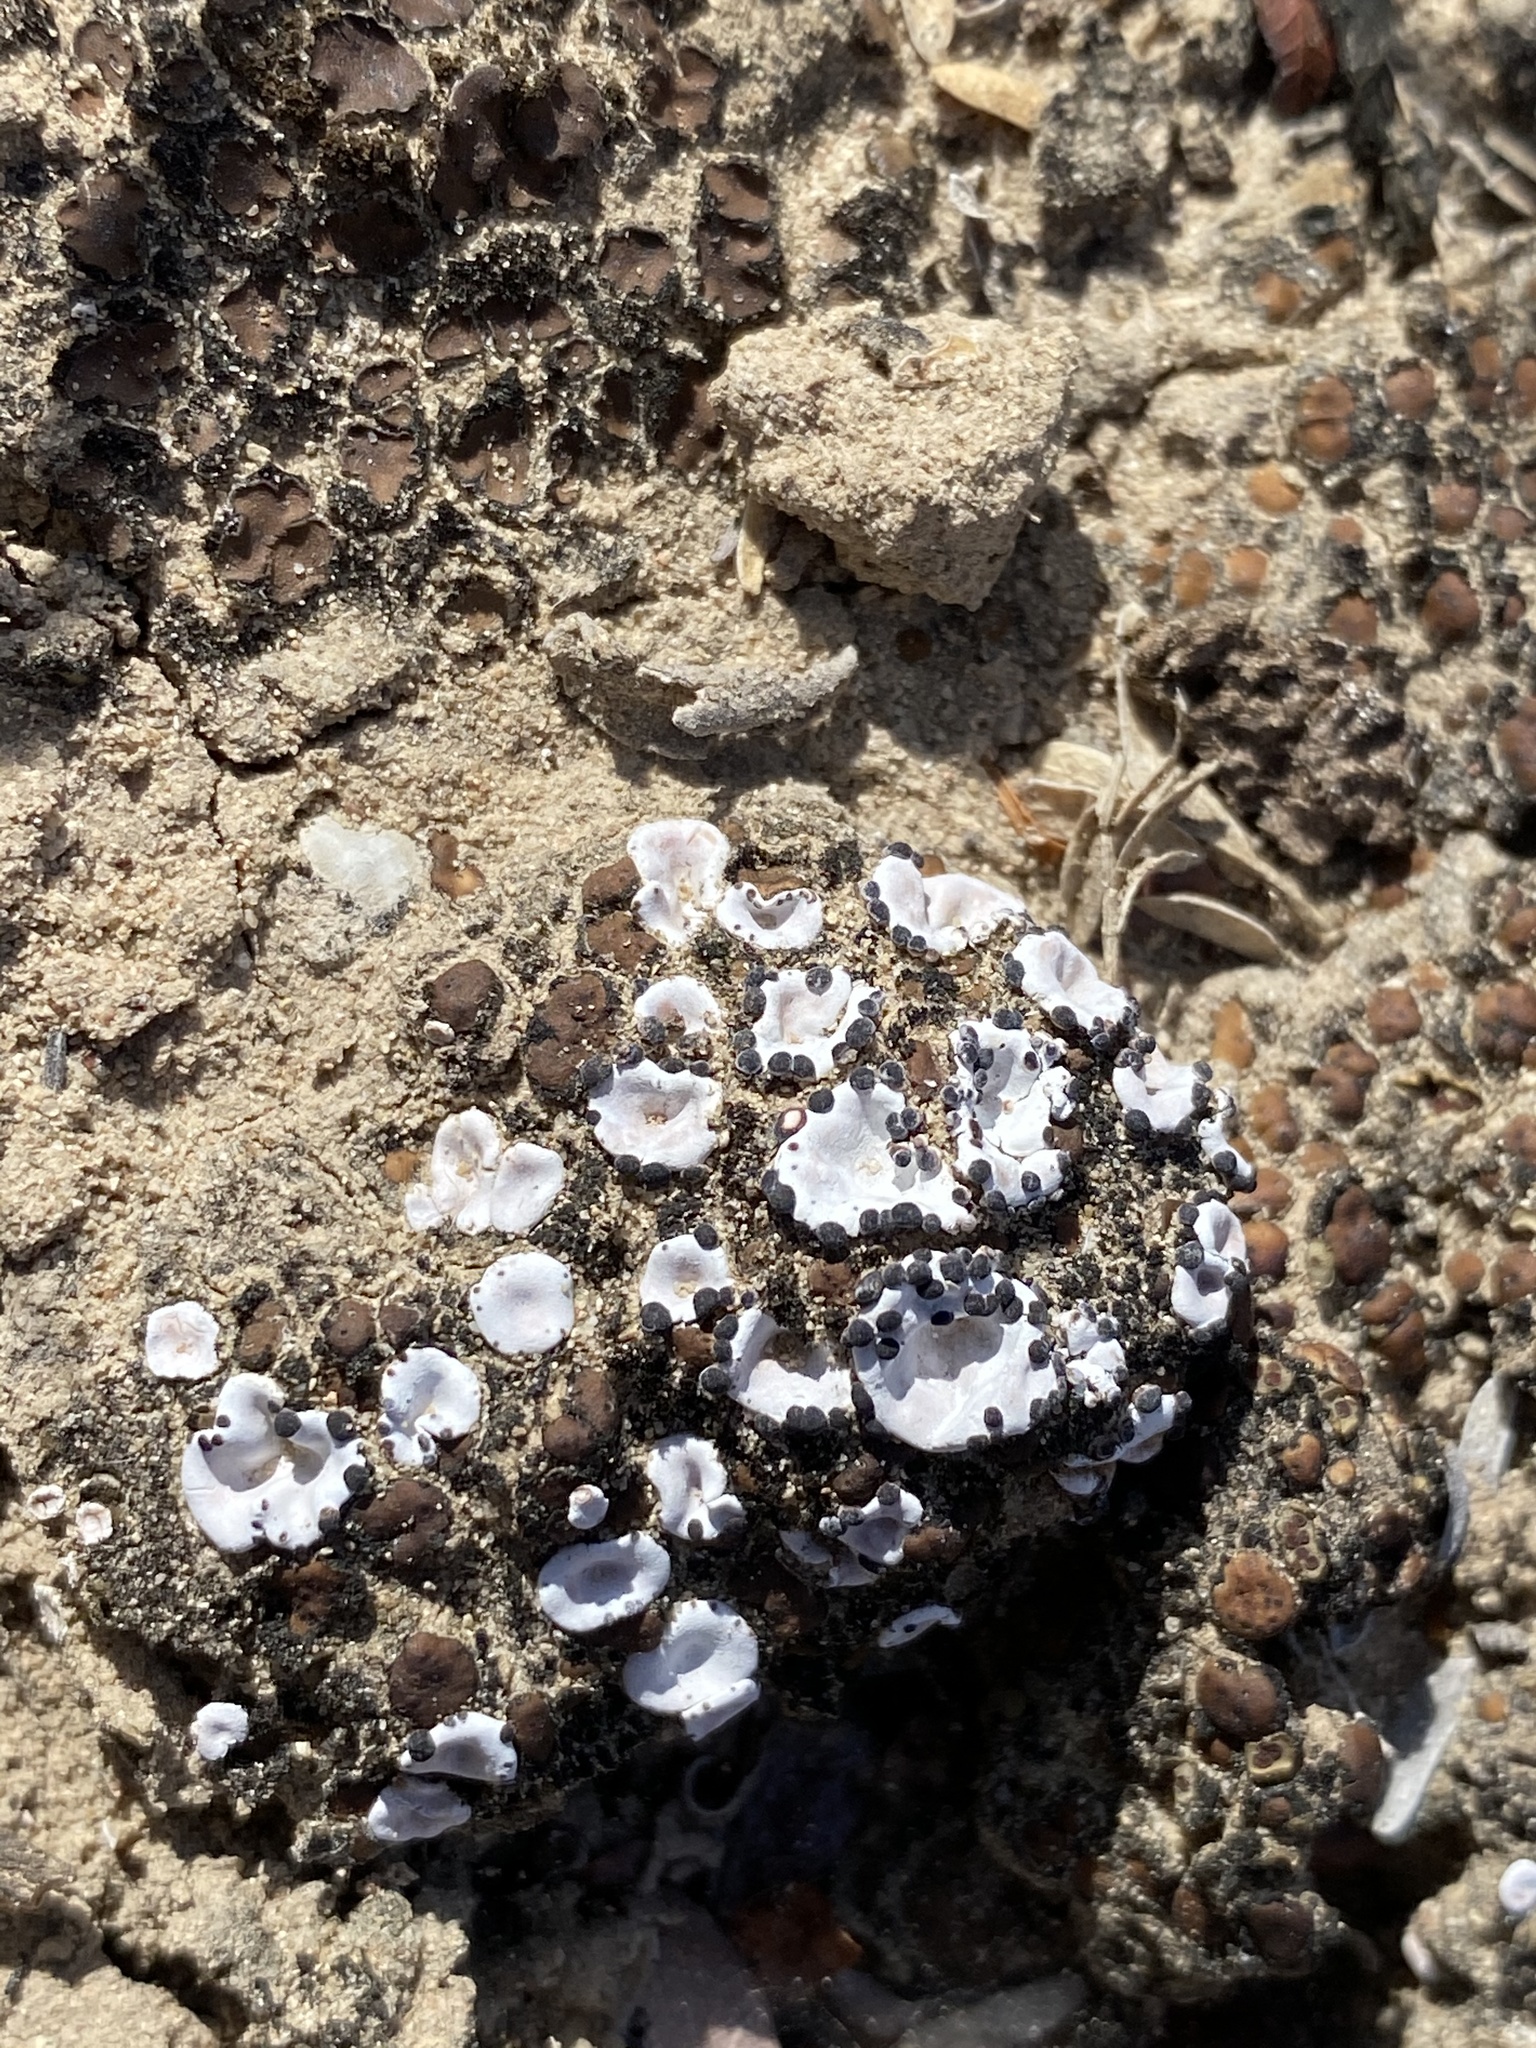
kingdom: Fungi
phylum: Ascomycota
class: Lecanoromycetes
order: Lecanorales
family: Psoraceae
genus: Psora
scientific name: Psora crenata
